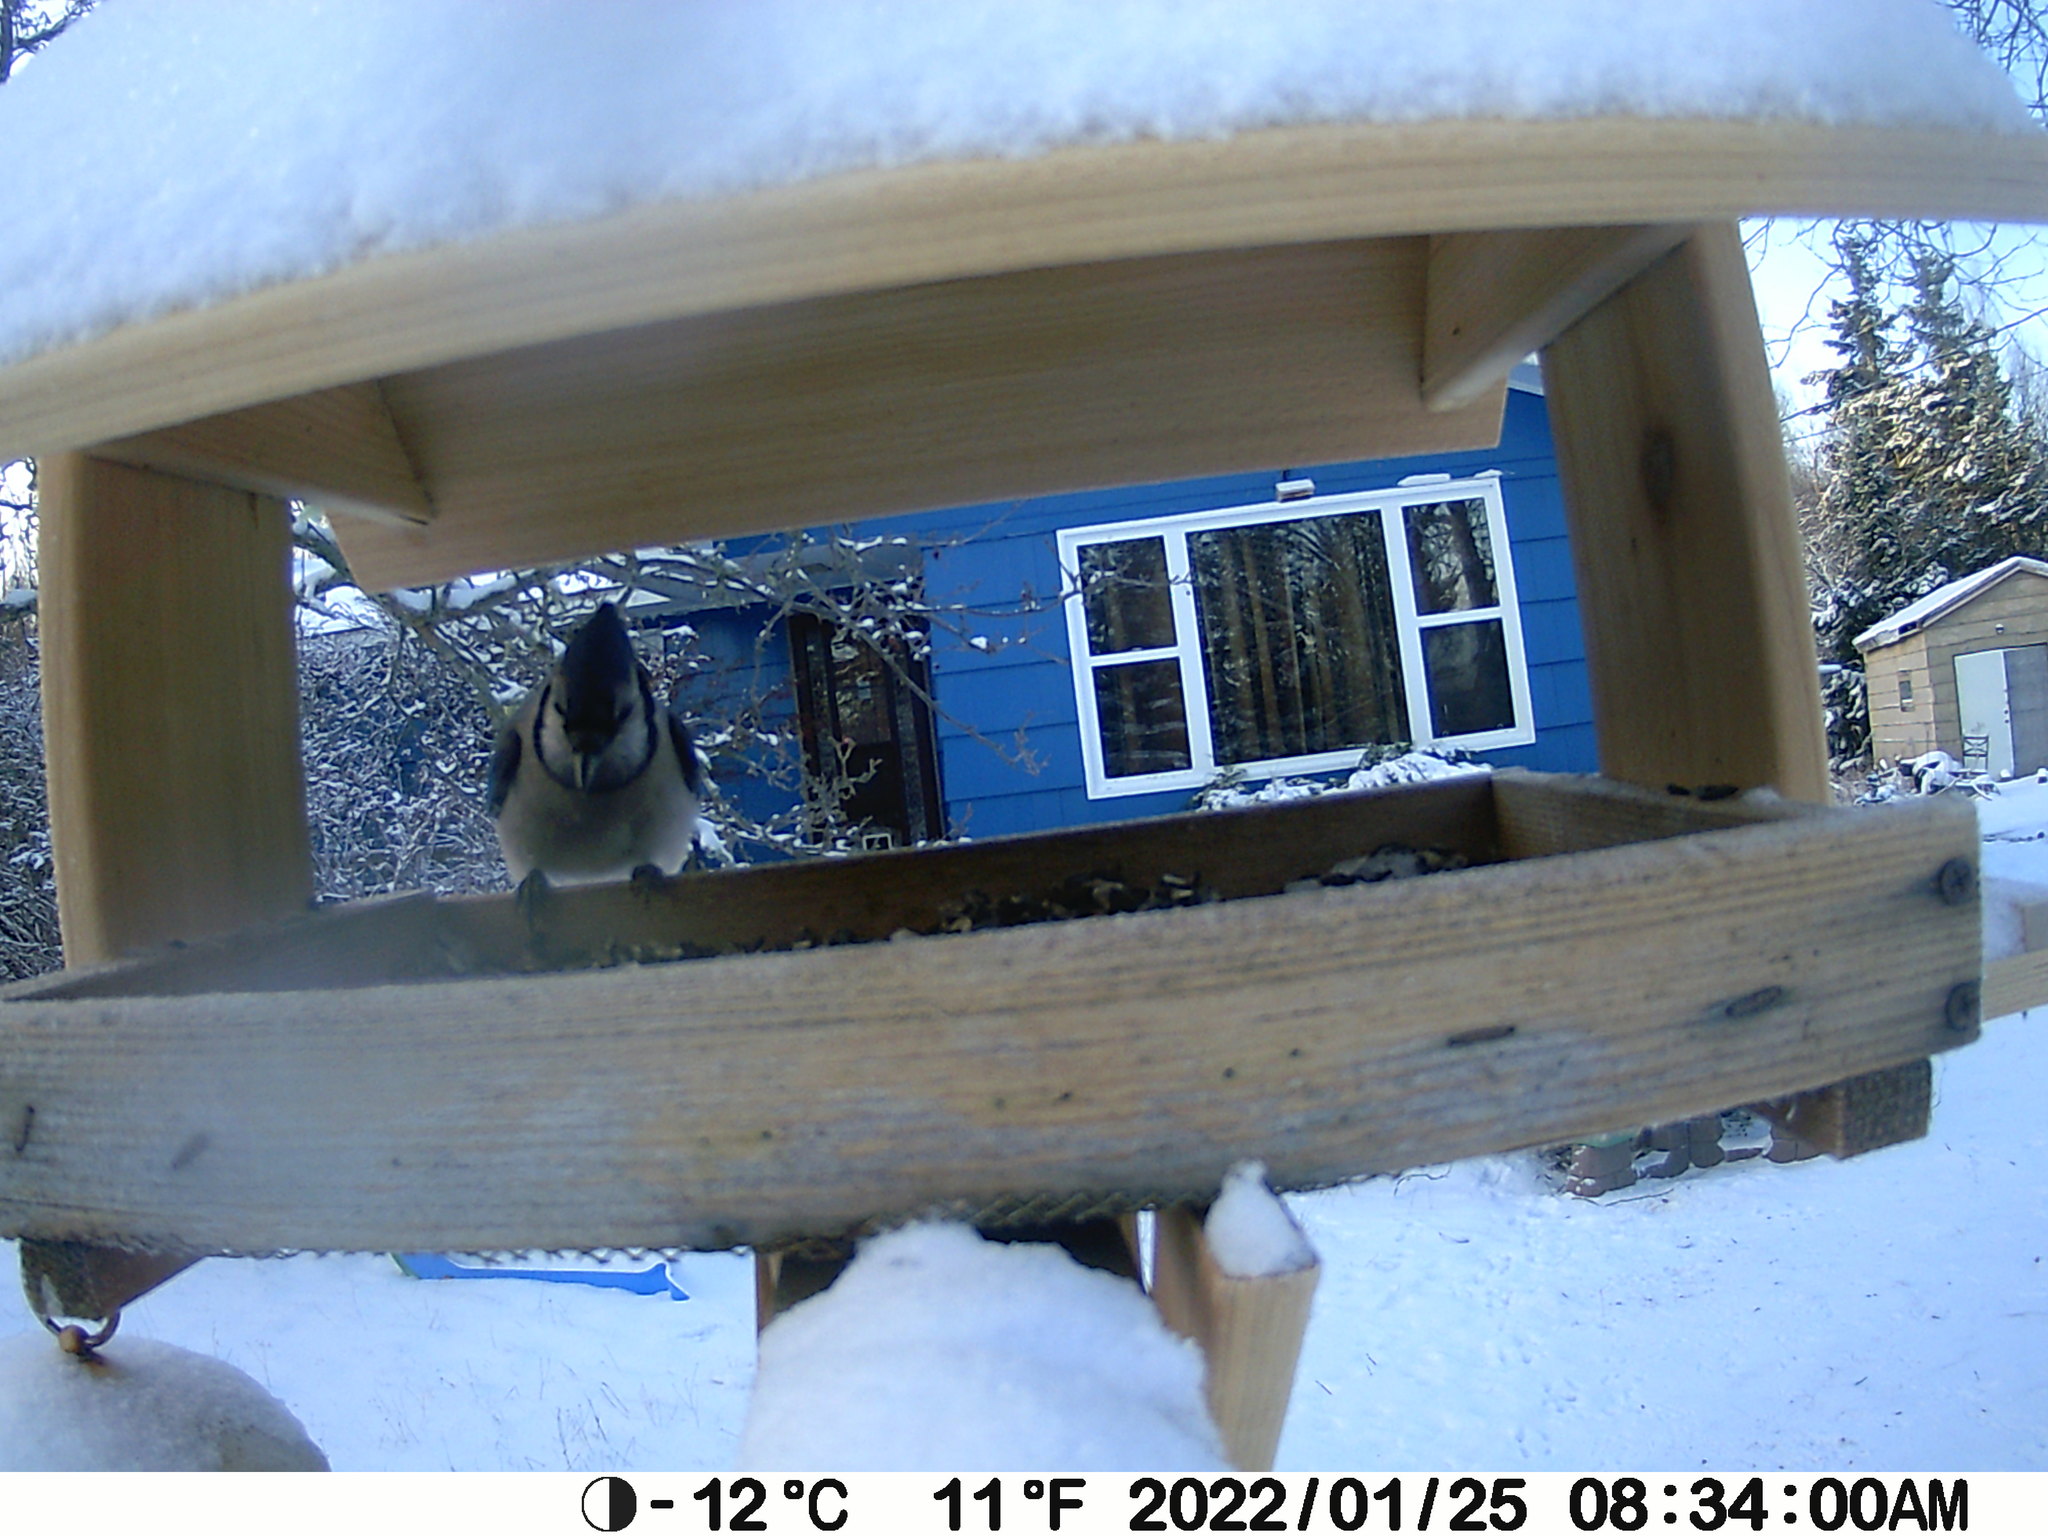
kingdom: Animalia
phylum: Chordata
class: Aves
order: Passeriformes
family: Corvidae
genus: Cyanocitta
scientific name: Cyanocitta cristata
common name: Blue jay
